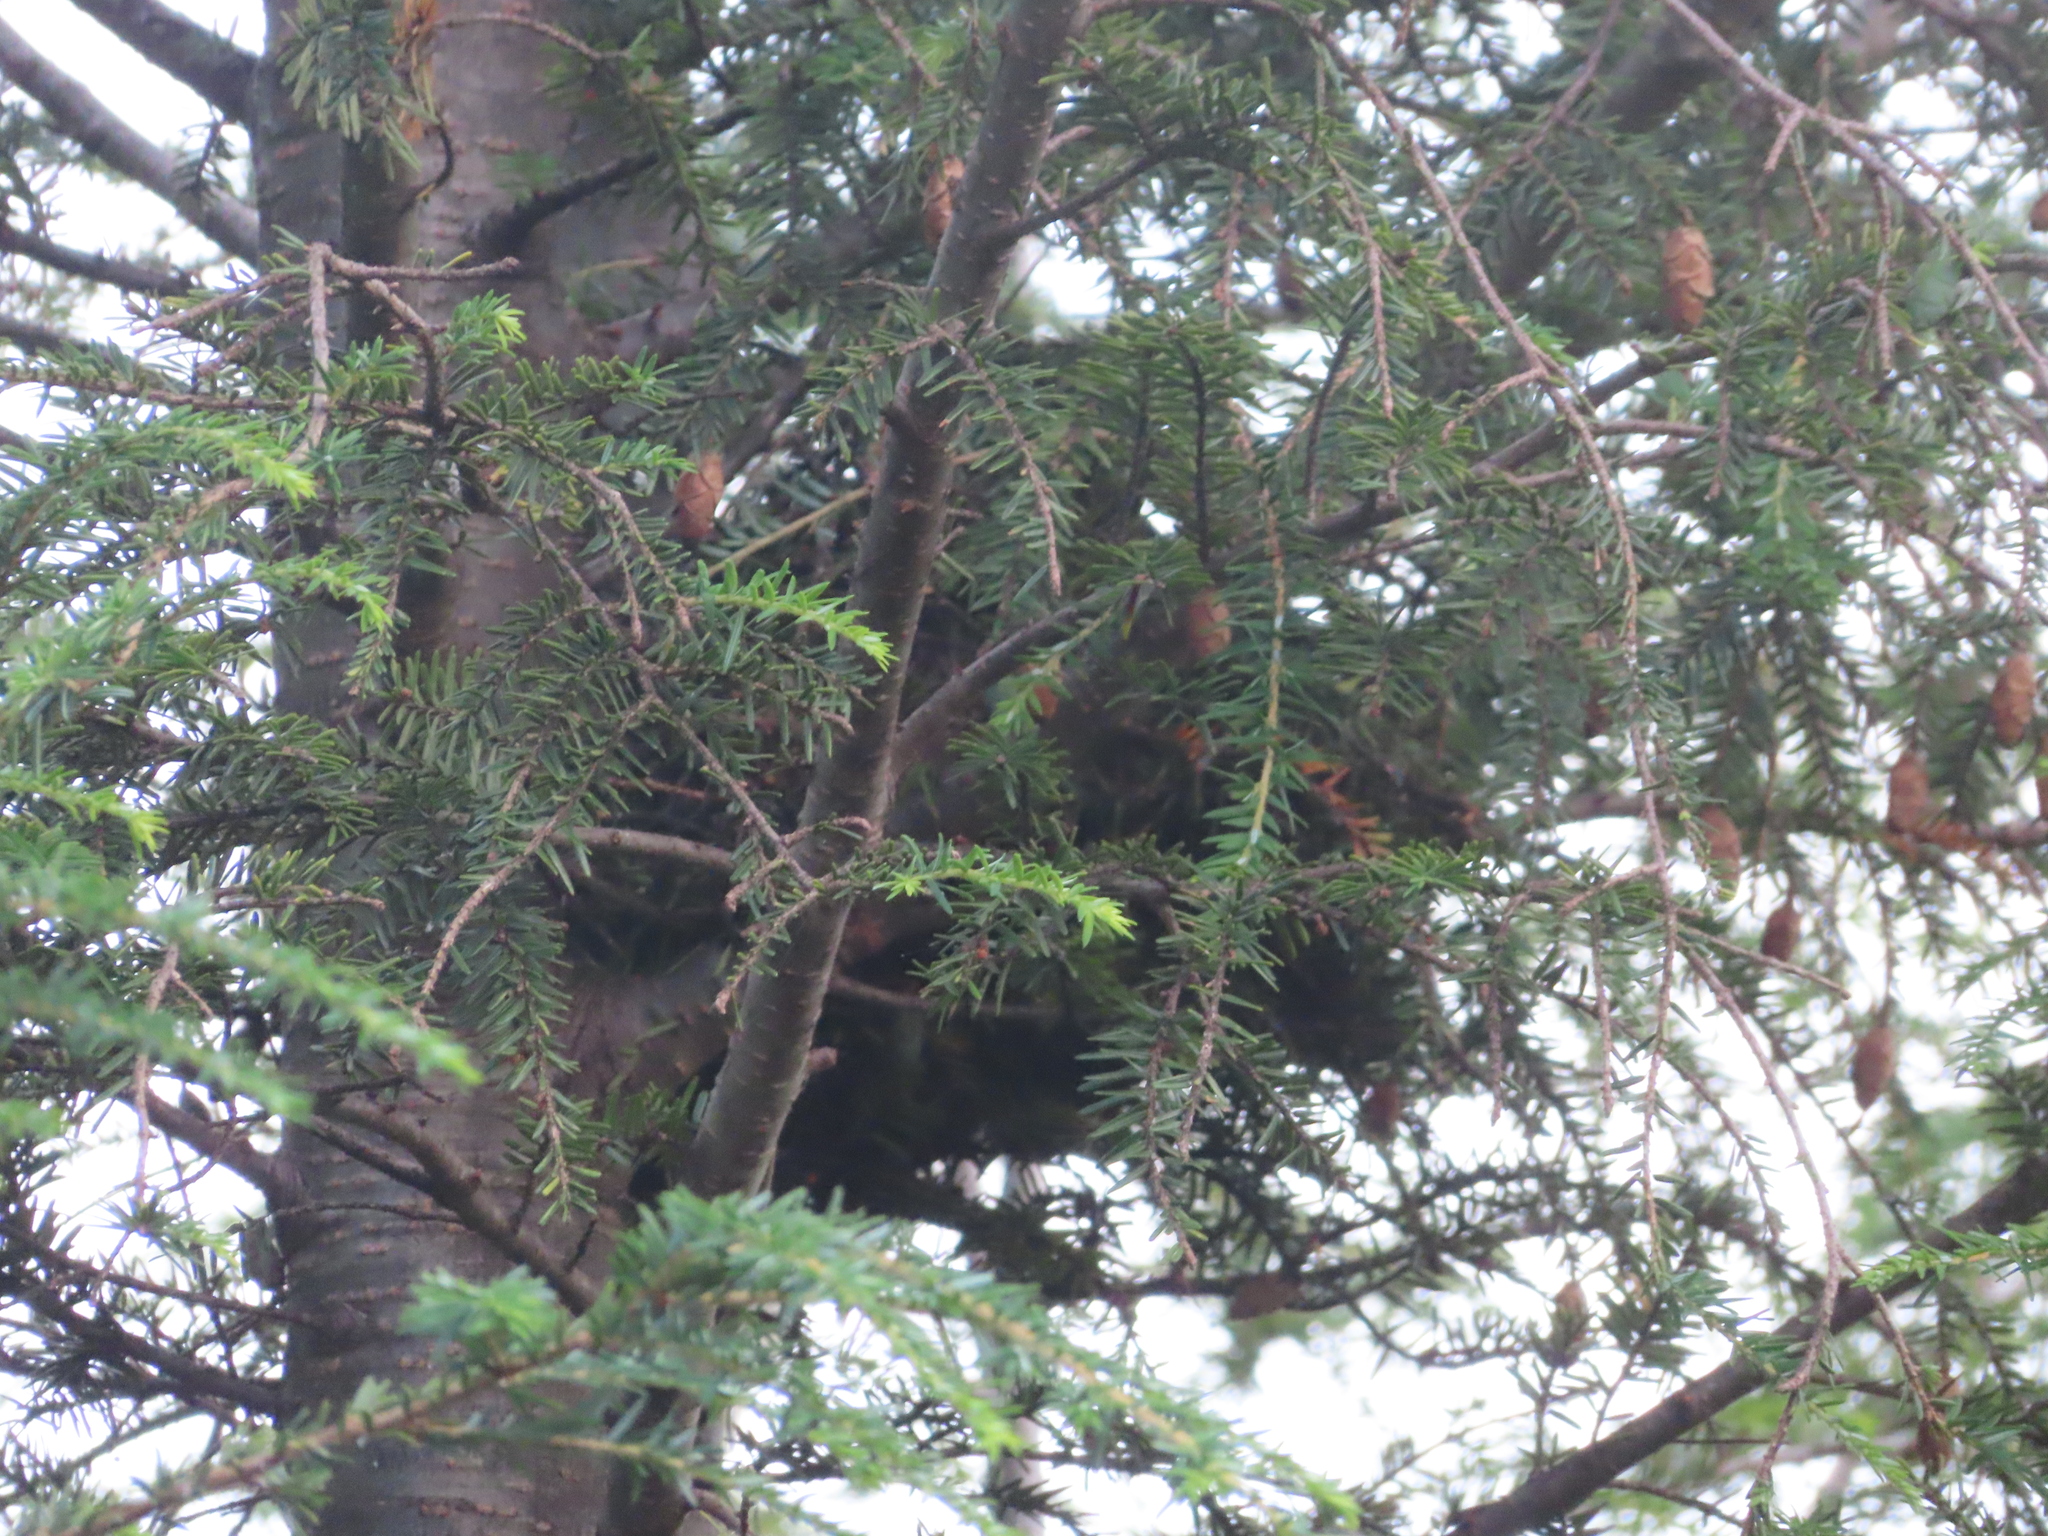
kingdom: Plantae
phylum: Tracheophyta
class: Pinopsida
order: Pinales
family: Pinaceae
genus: Tsuga
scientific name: Tsuga canadensis
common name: Eastern hemlock
